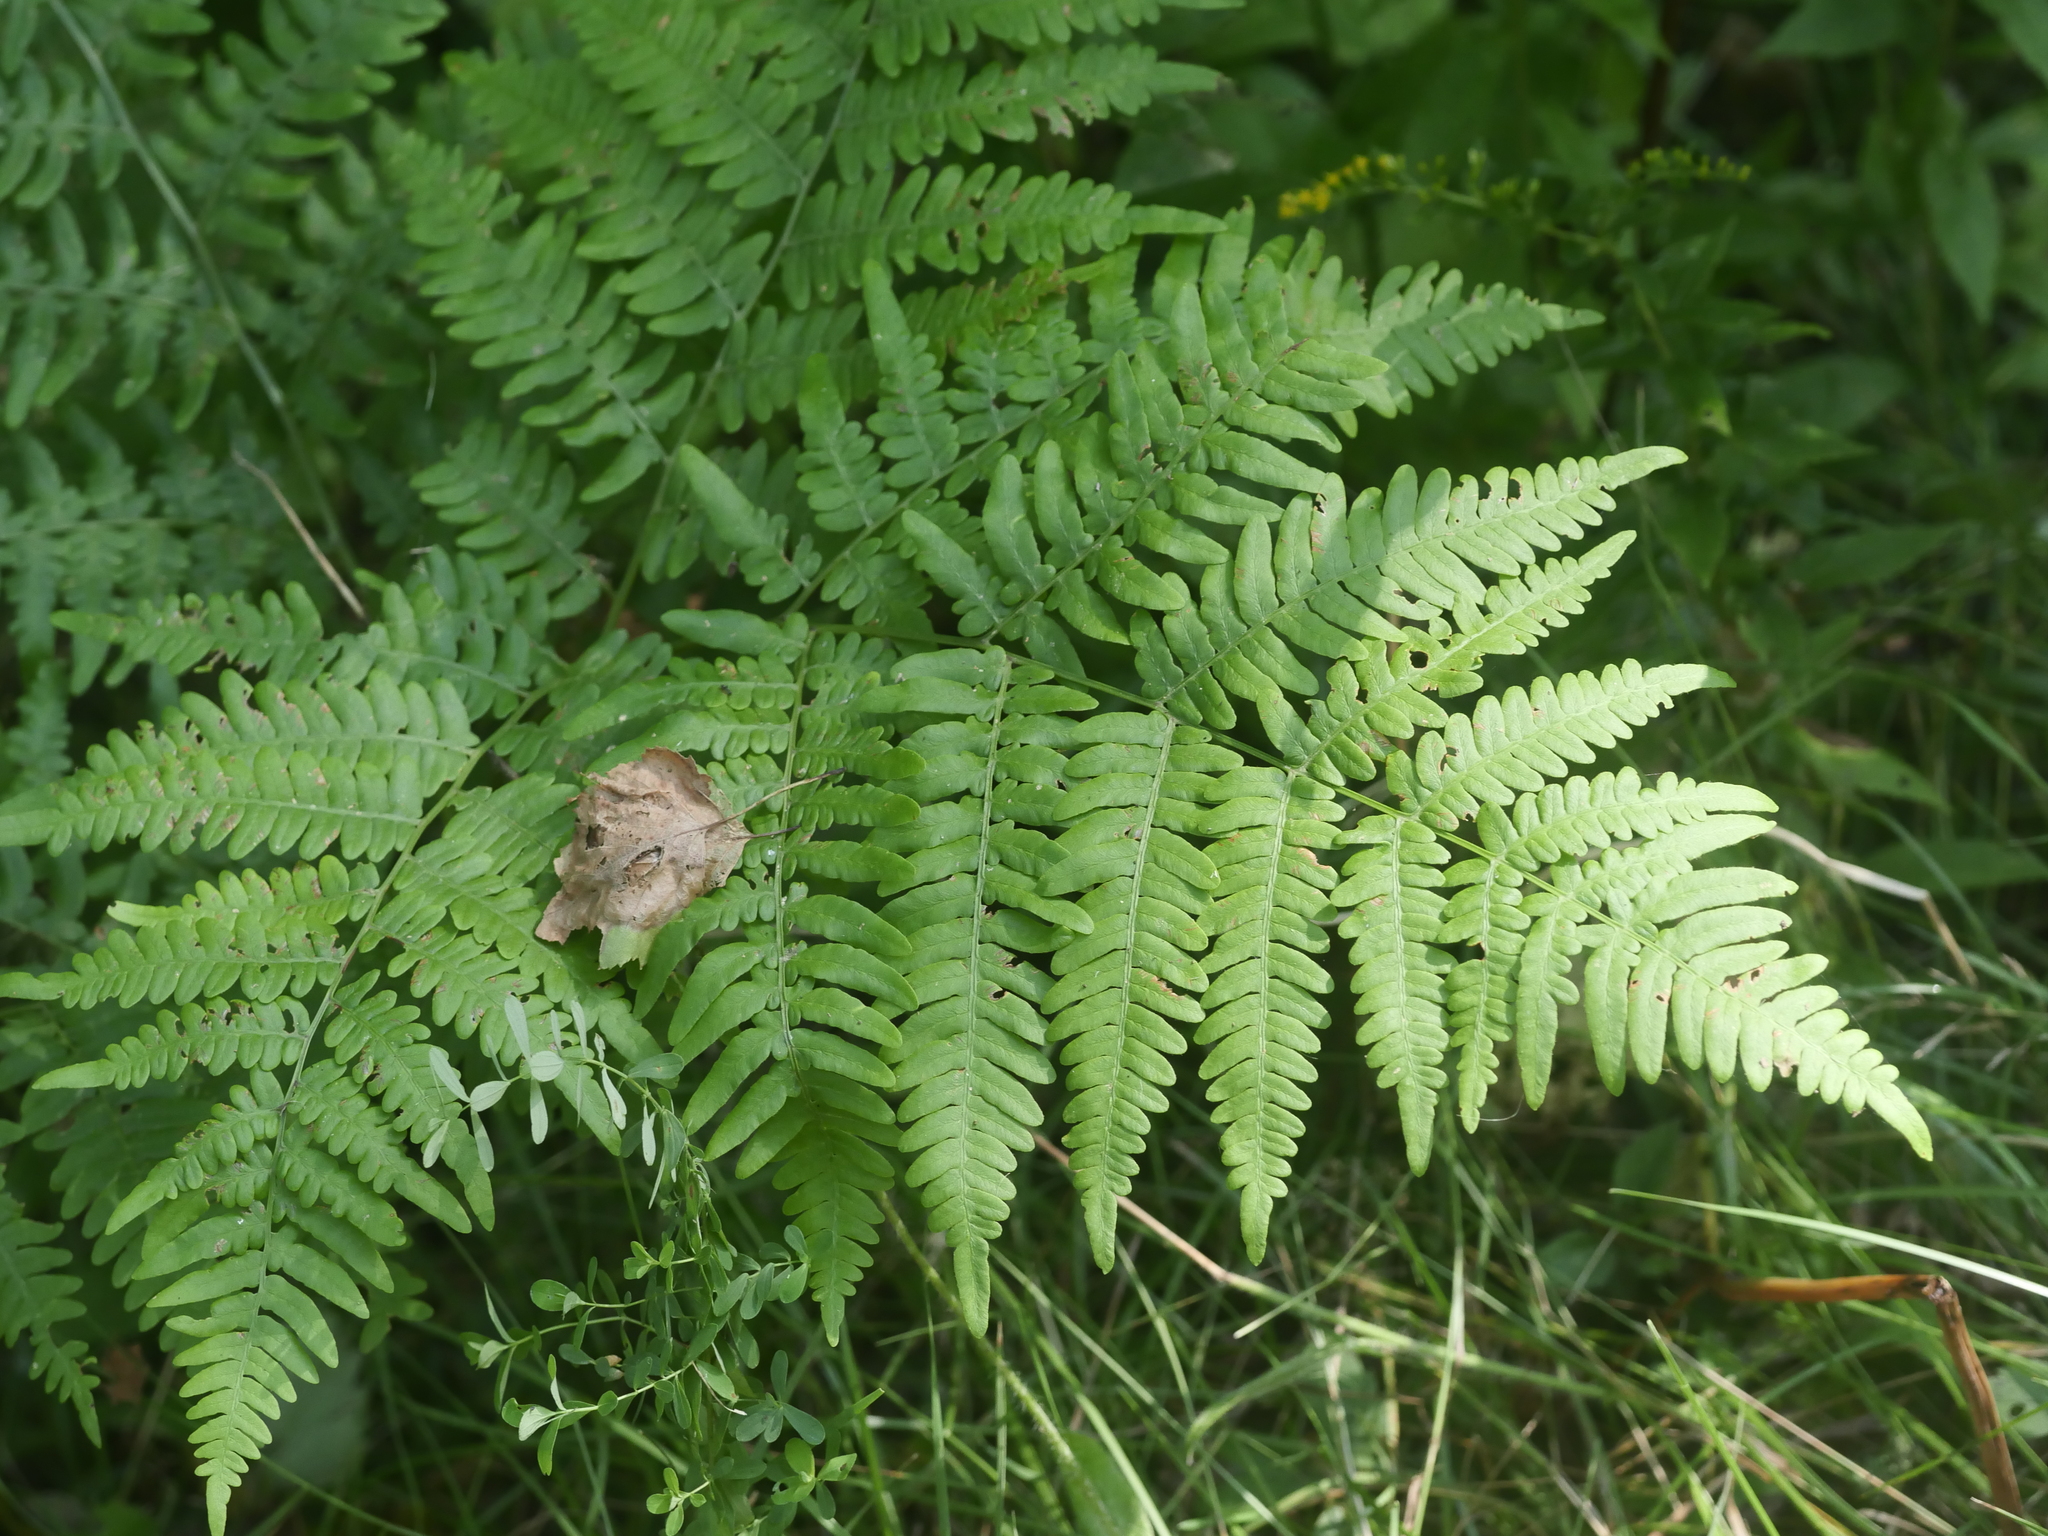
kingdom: Plantae
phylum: Tracheophyta
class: Polypodiopsida
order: Polypodiales
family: Dennstaedtiaceae
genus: Pteridium
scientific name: Pteridium aquilinum
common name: Bracken
